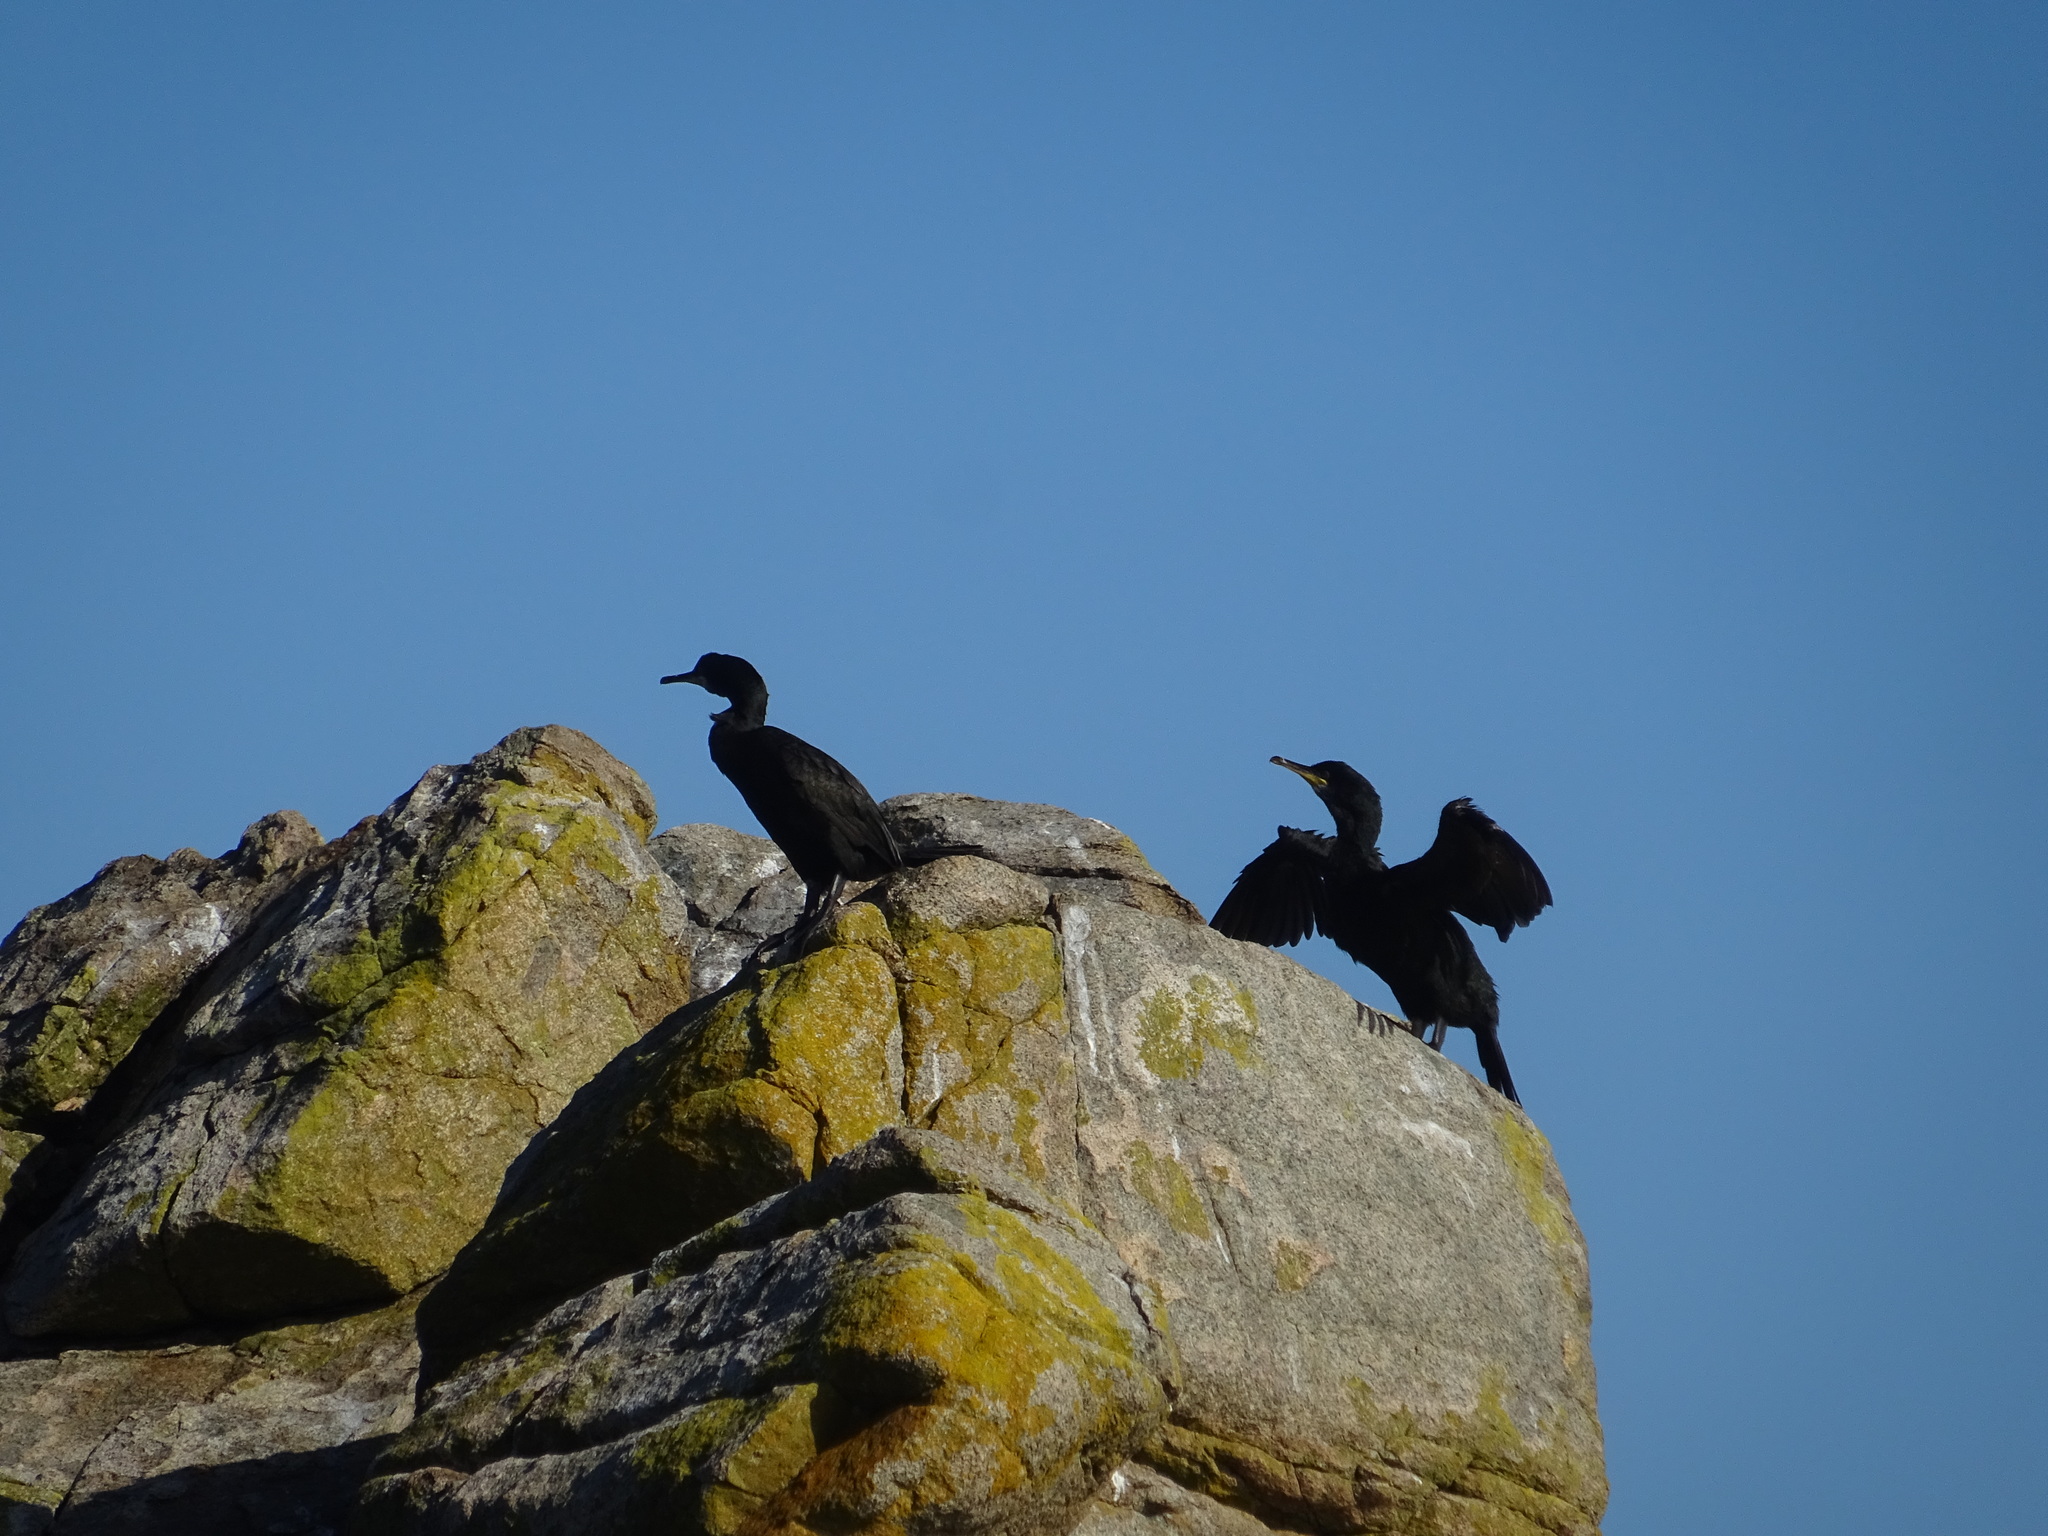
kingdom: Animalia
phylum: Chordata
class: Aves
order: Suliformes
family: Phalacrocoracidae
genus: Phalacrocorax
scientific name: Phalacrocorax aristotelis
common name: European shag
